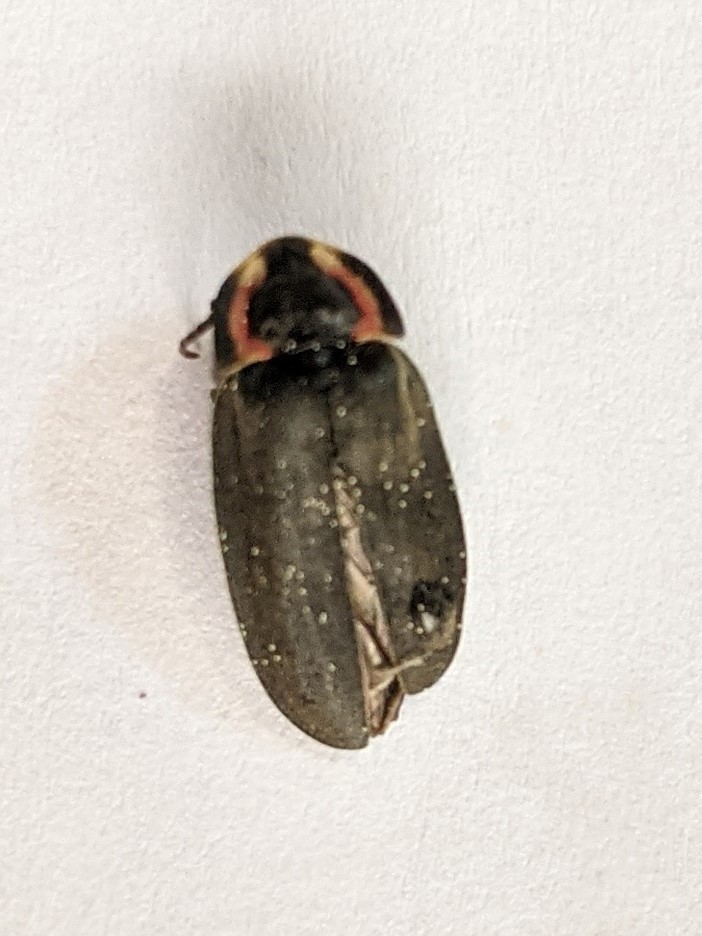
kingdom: Animalia
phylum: Arthropoda
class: Insecta
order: Coleoptera
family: Lampyridae
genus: Photinus
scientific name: Photinus corrusca
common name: Winter firefly
